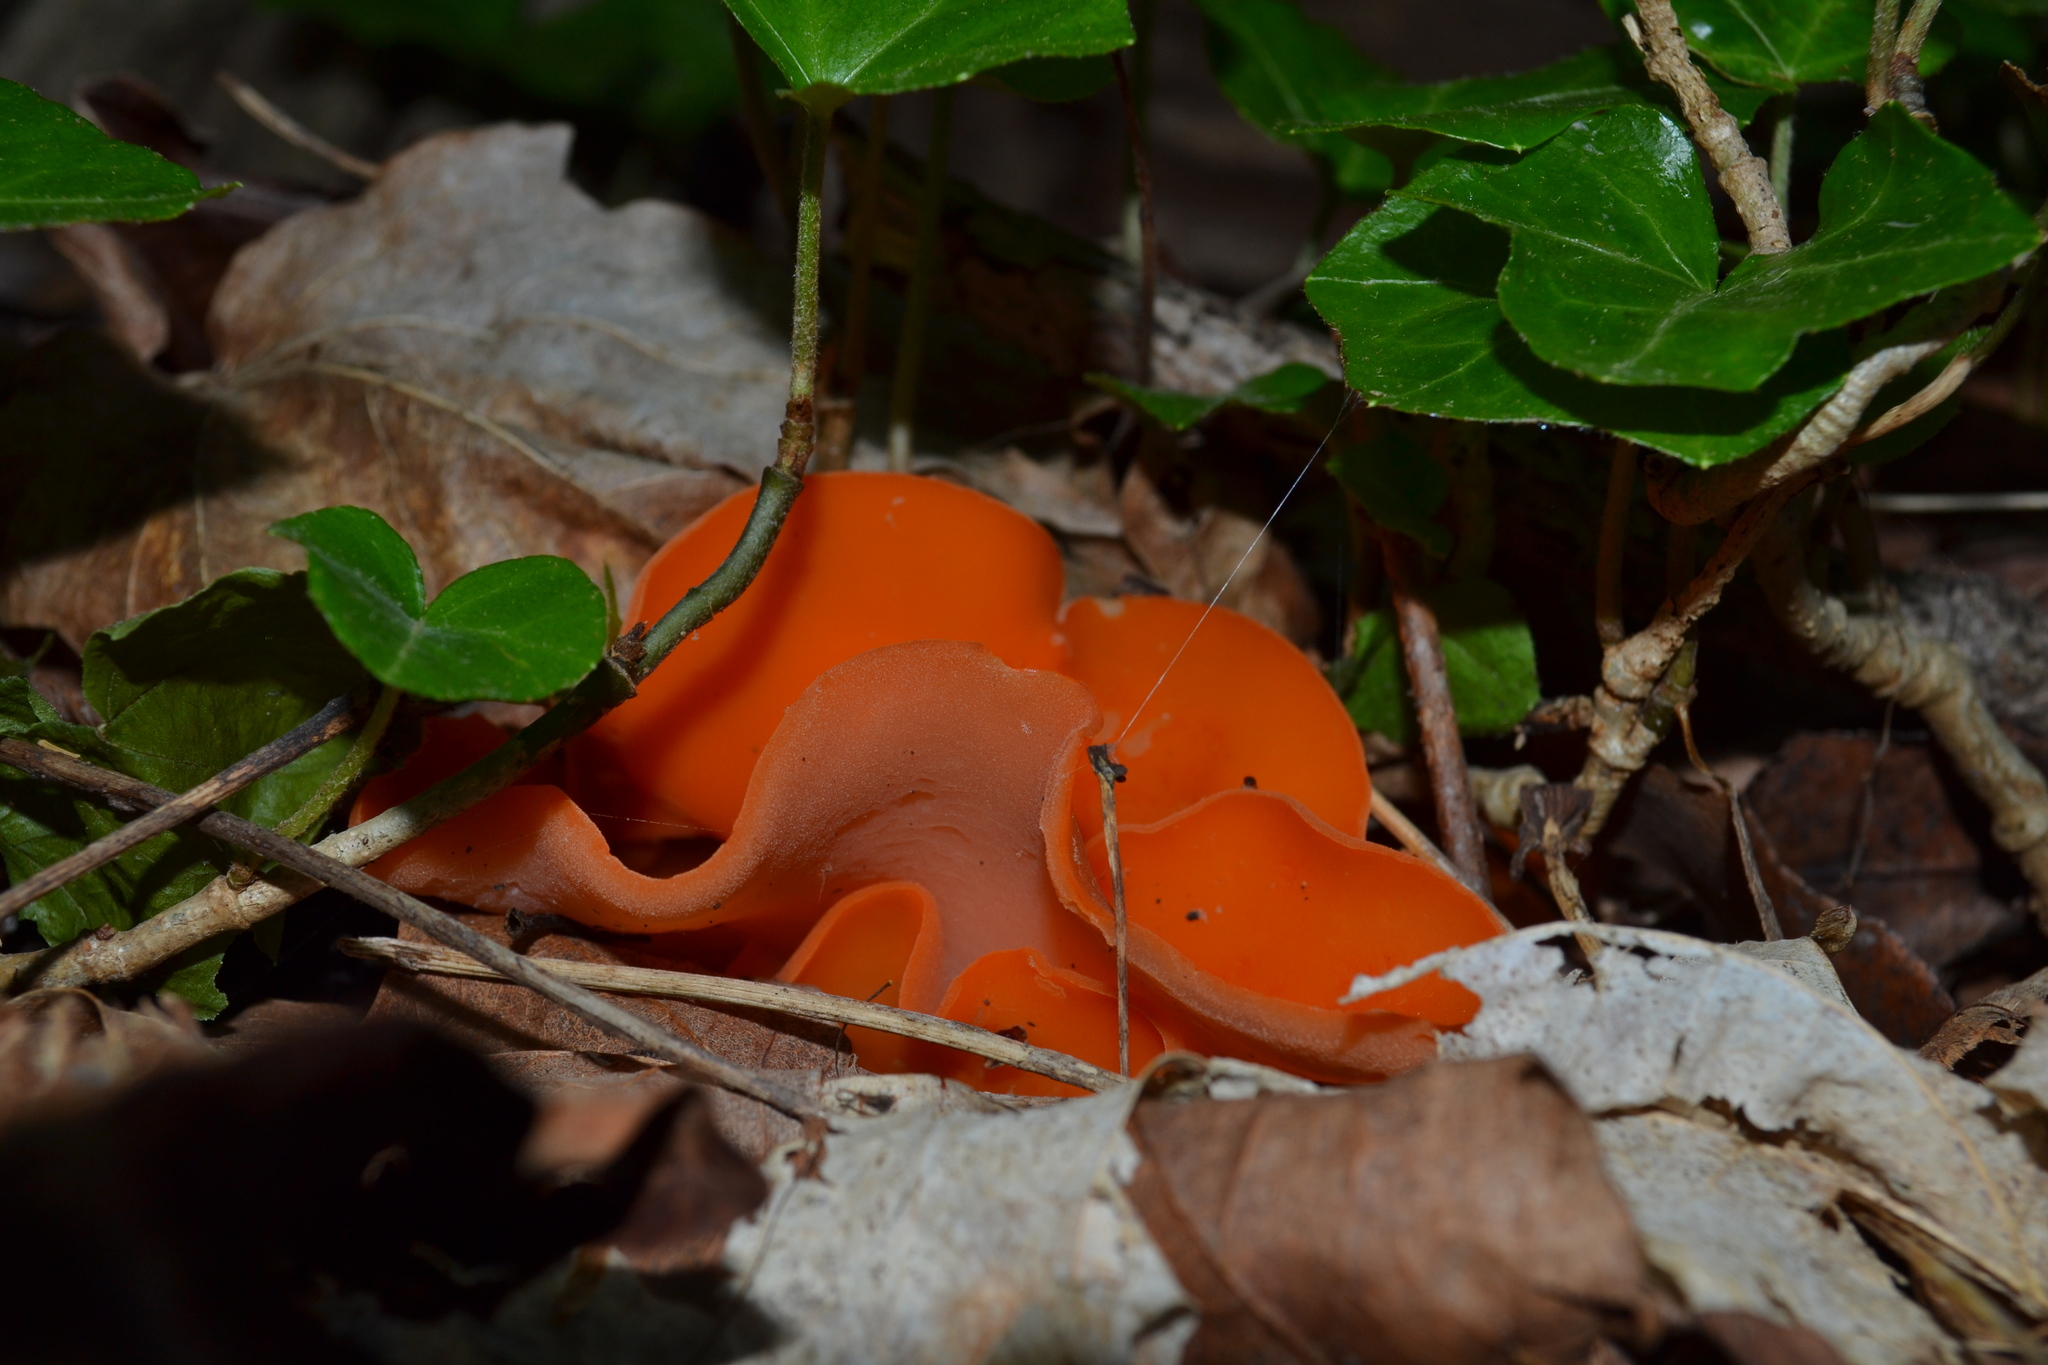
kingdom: Fungi
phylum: Ascomycota
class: Pezizomycetes
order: Pezizales
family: Pyronemataceae
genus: Aleuria
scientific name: Aleuria aurantia
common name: Orange peel fungus
